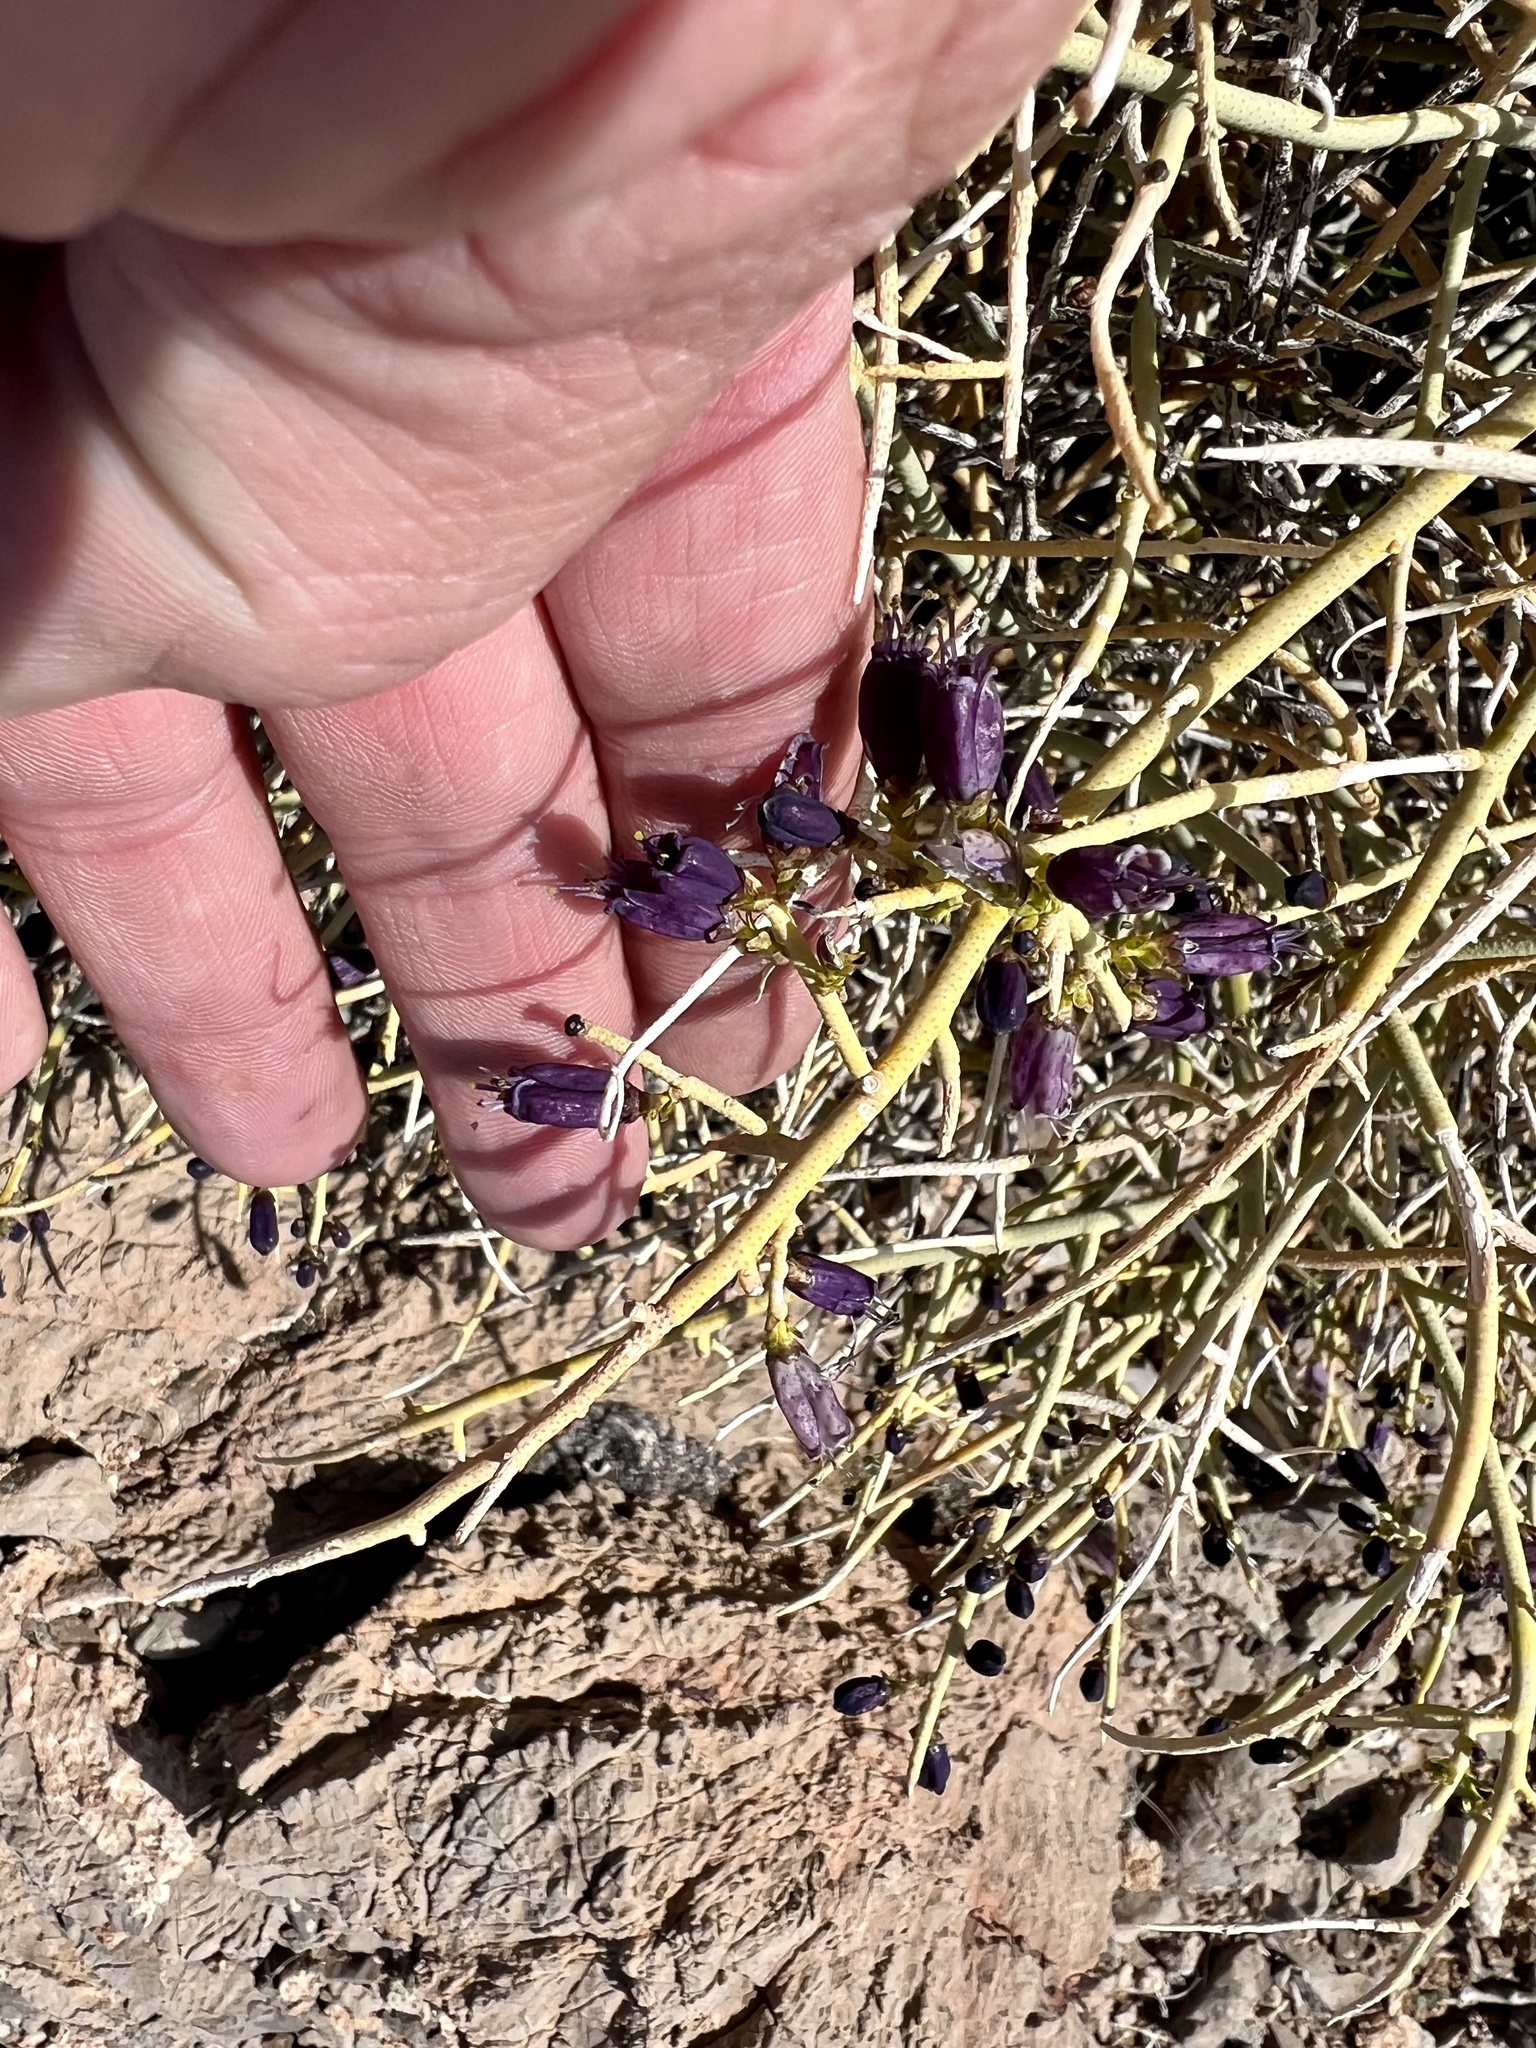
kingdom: Plantae
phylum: Tracheophyta
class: Magnoliopsida
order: Sapindales
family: Rutaceae
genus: Thamnosma
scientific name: Thamnosma montana
